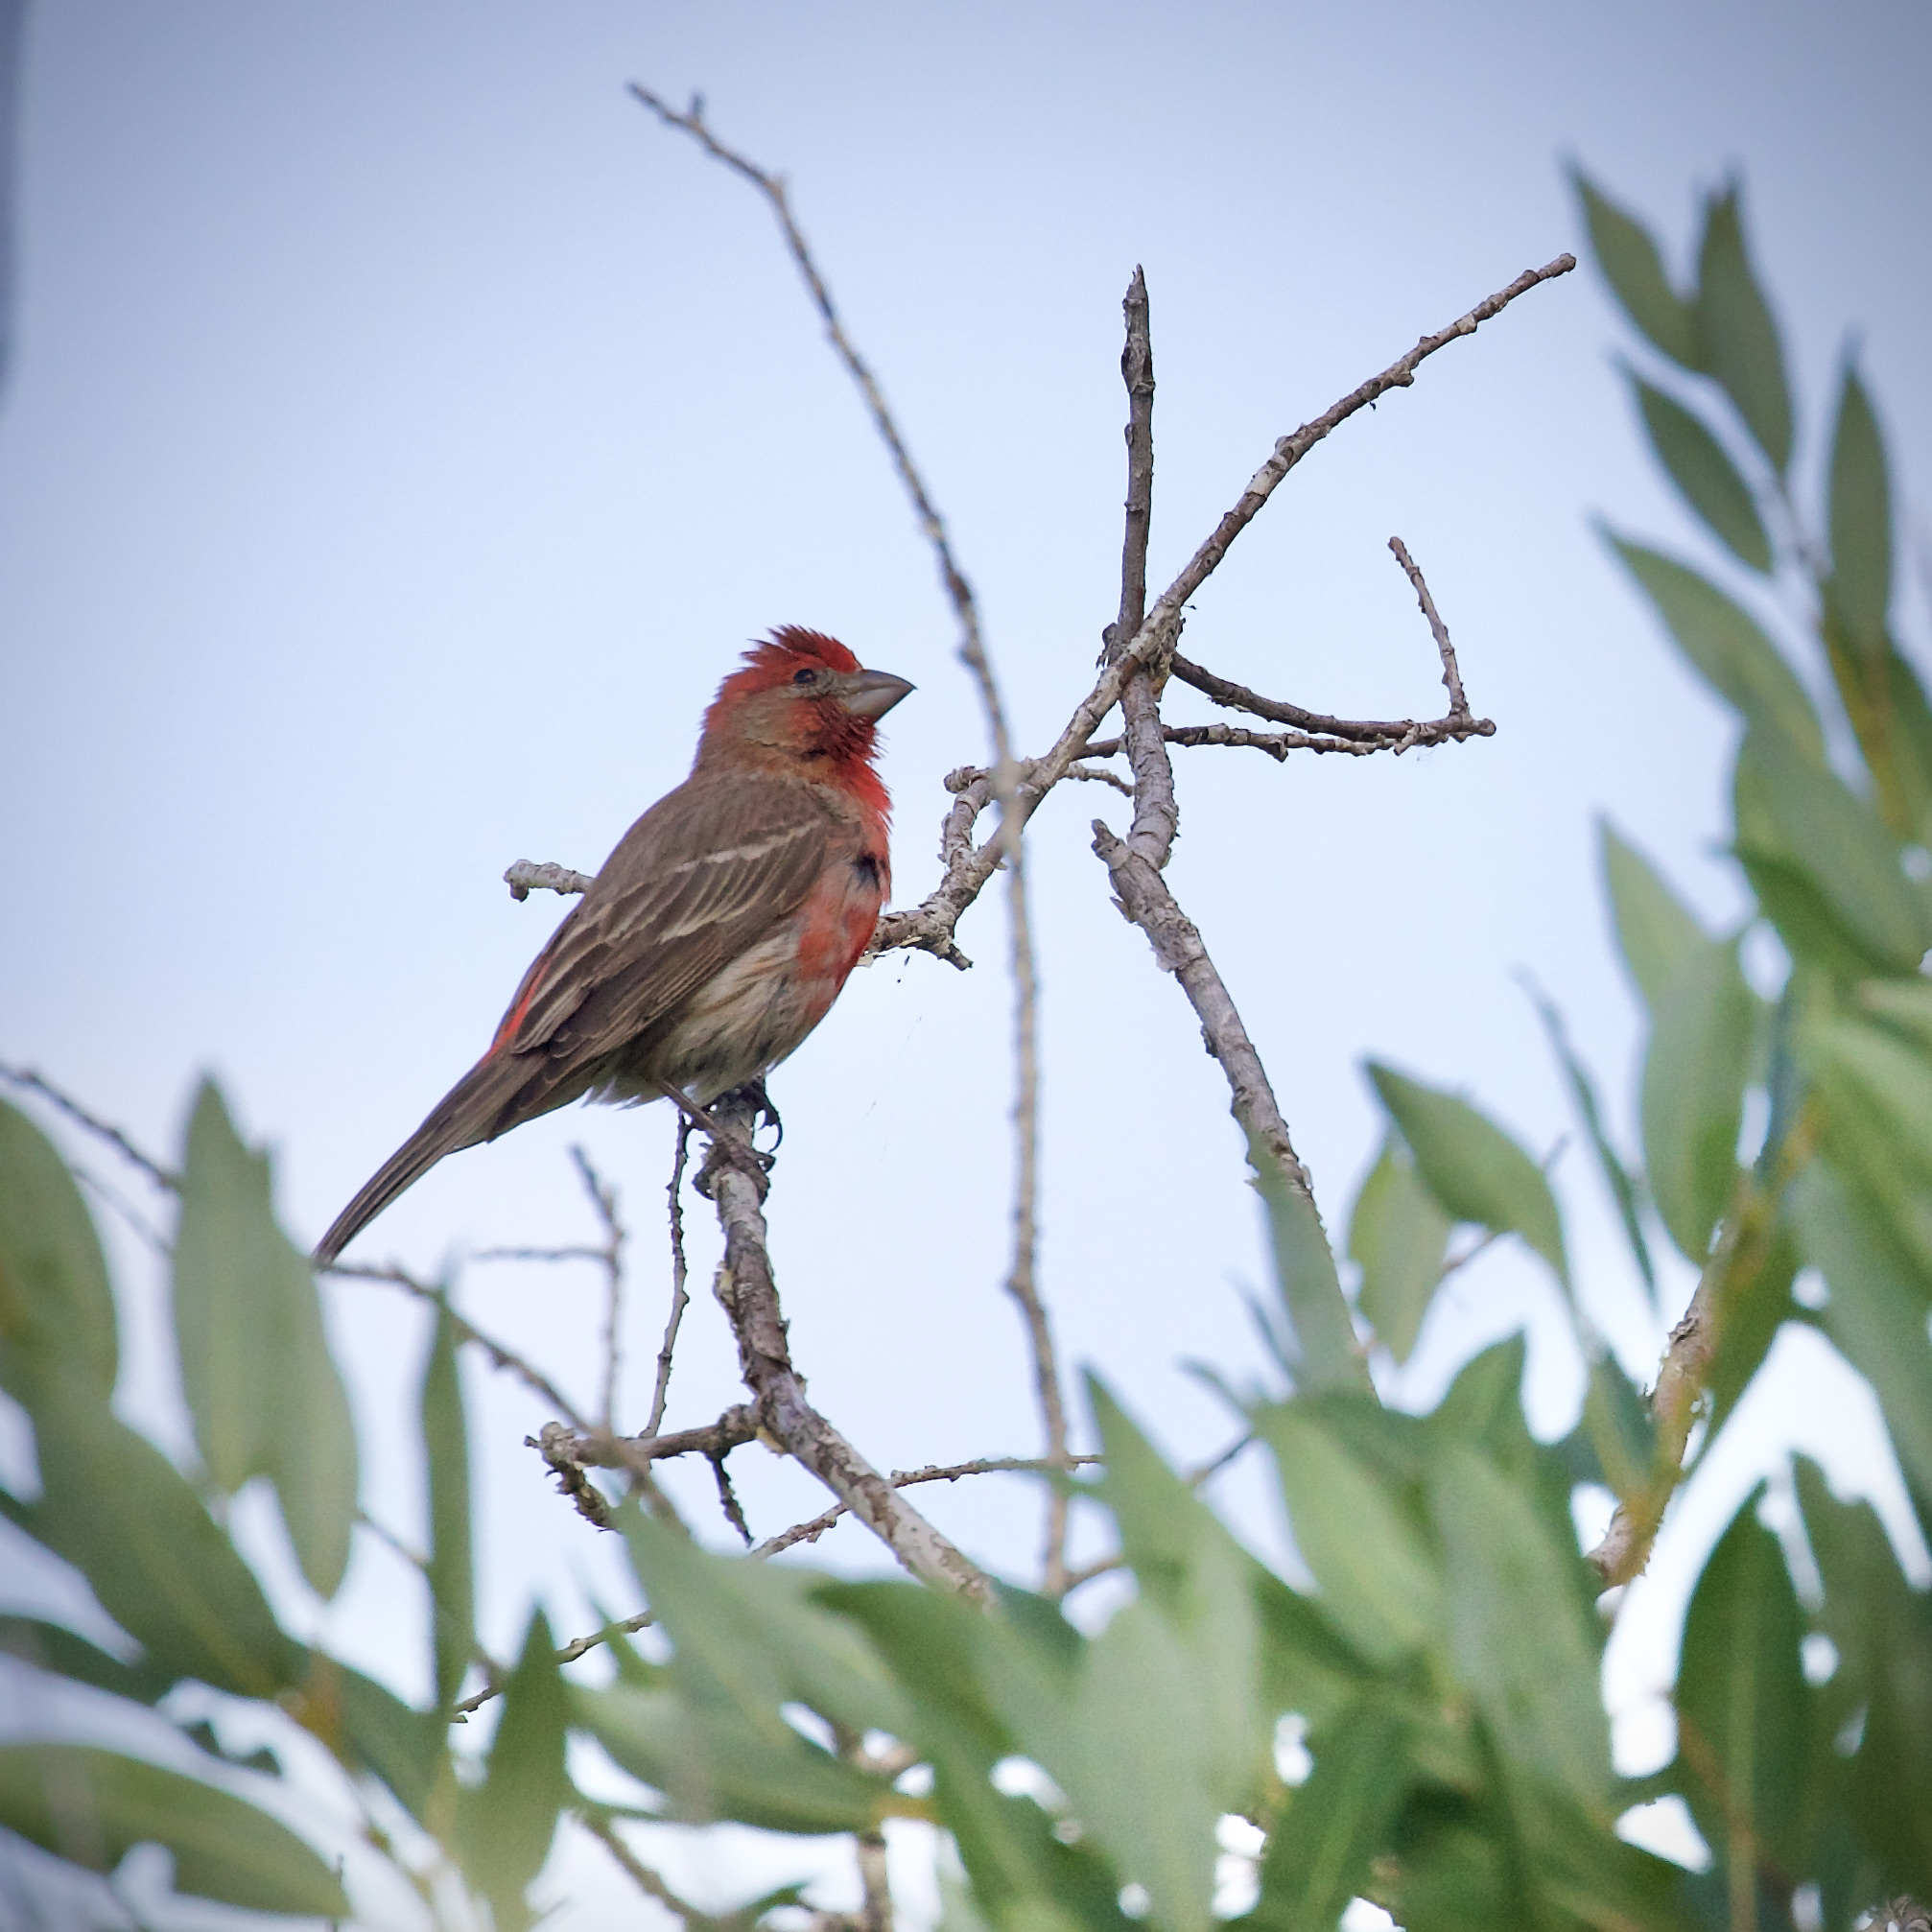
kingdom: Animalia
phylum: Chordata
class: Aves
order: Passeriformes
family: Fringillidae
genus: Haemorhous
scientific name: Haemorhous mexicanus
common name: House finch
